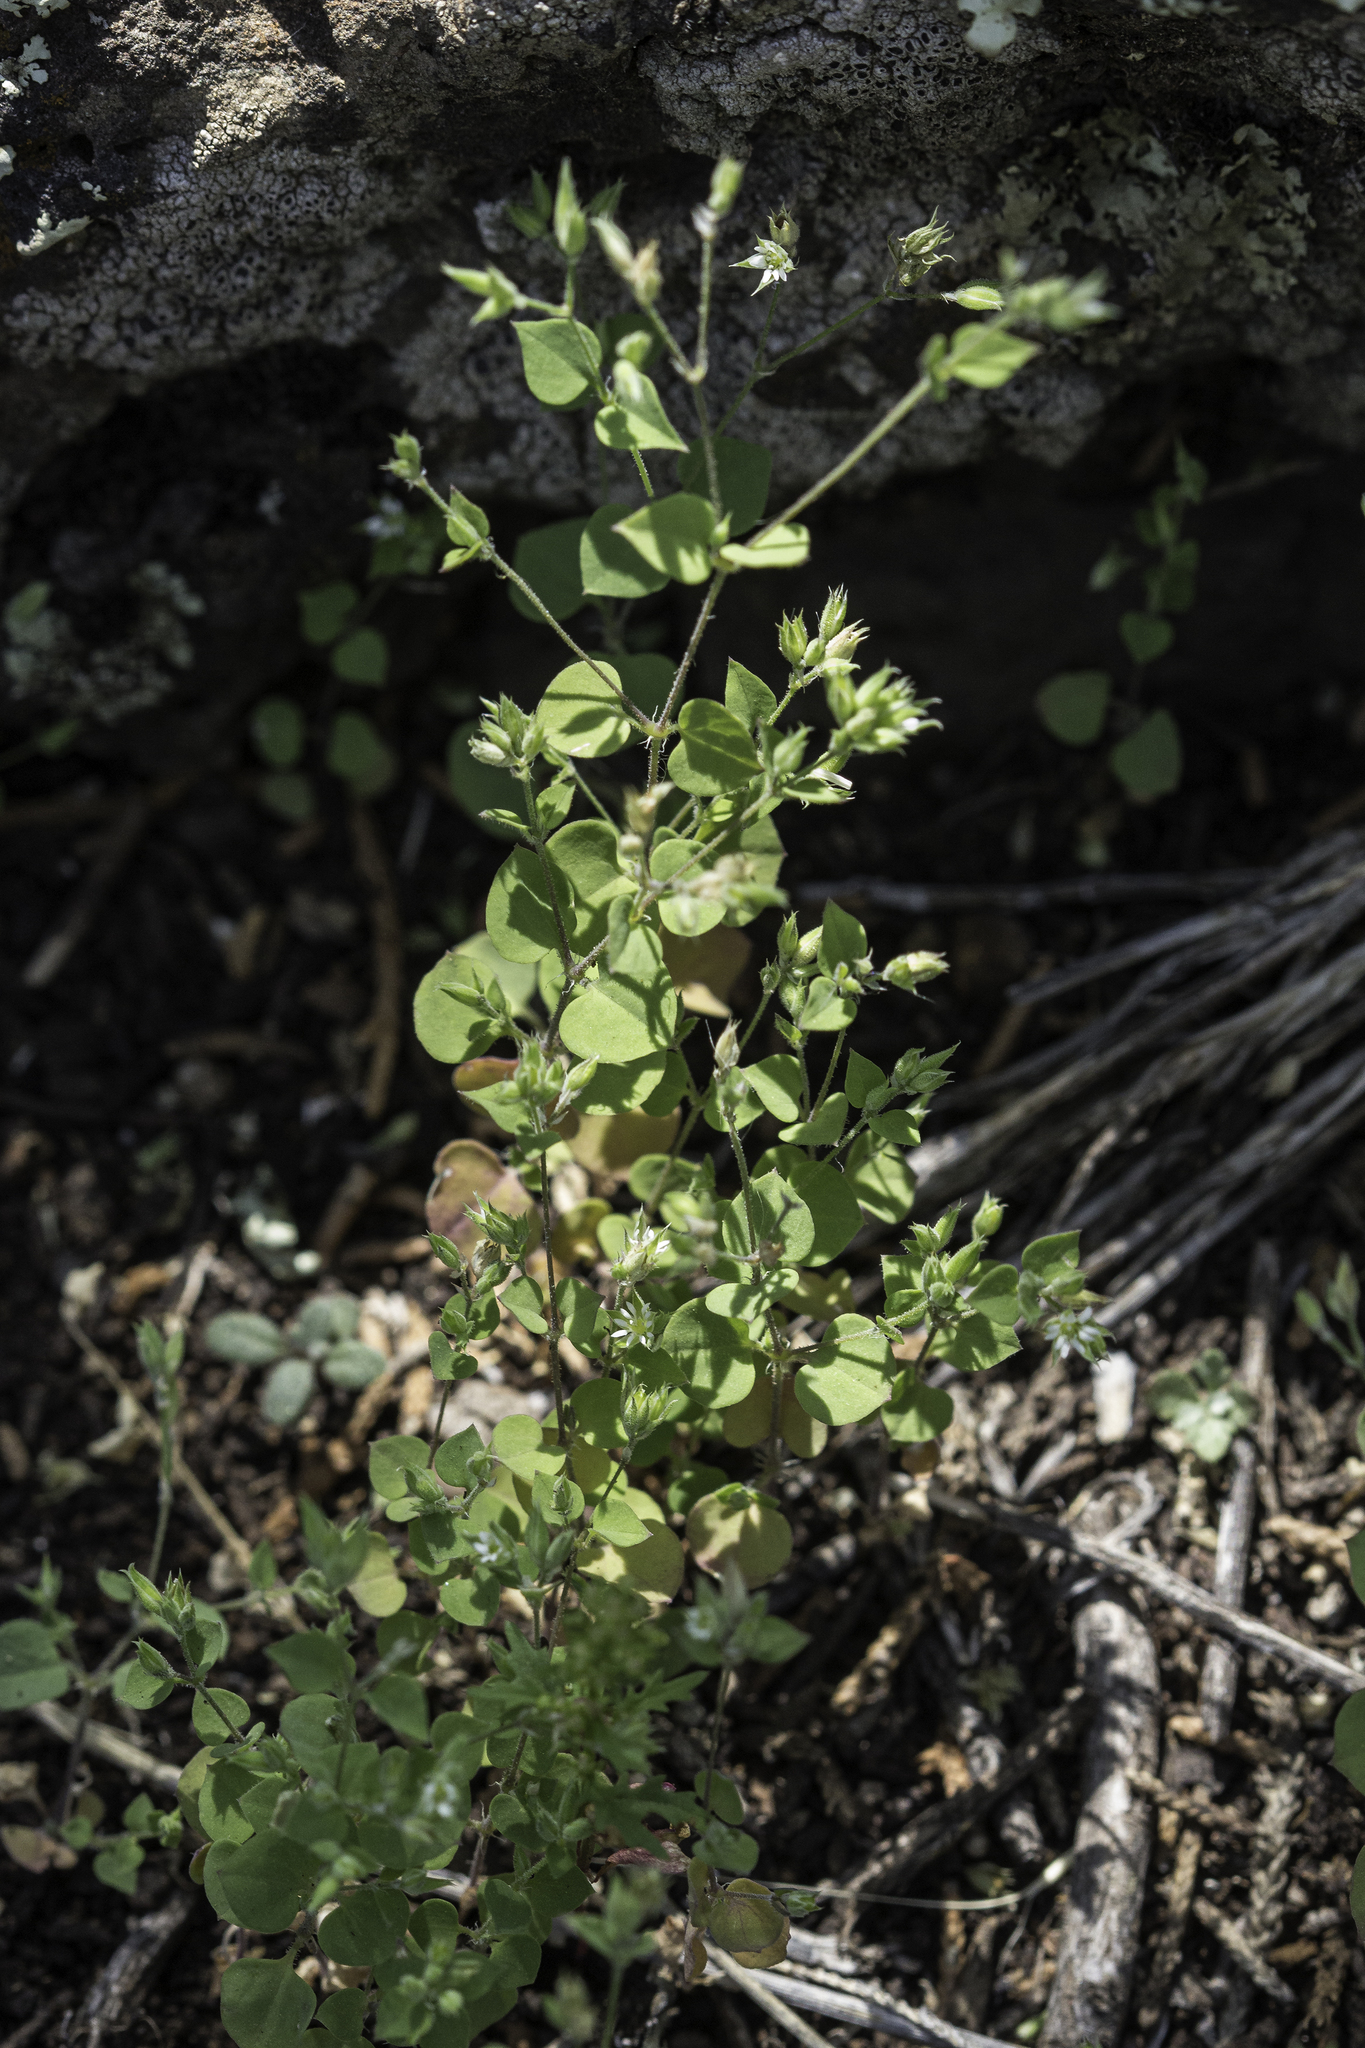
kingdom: Plantae
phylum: Tracheophyta
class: Magnoliopsida
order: Caryophyllales
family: Caryophyllaceae
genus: Drymaria
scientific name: Drymaria glandulosa
